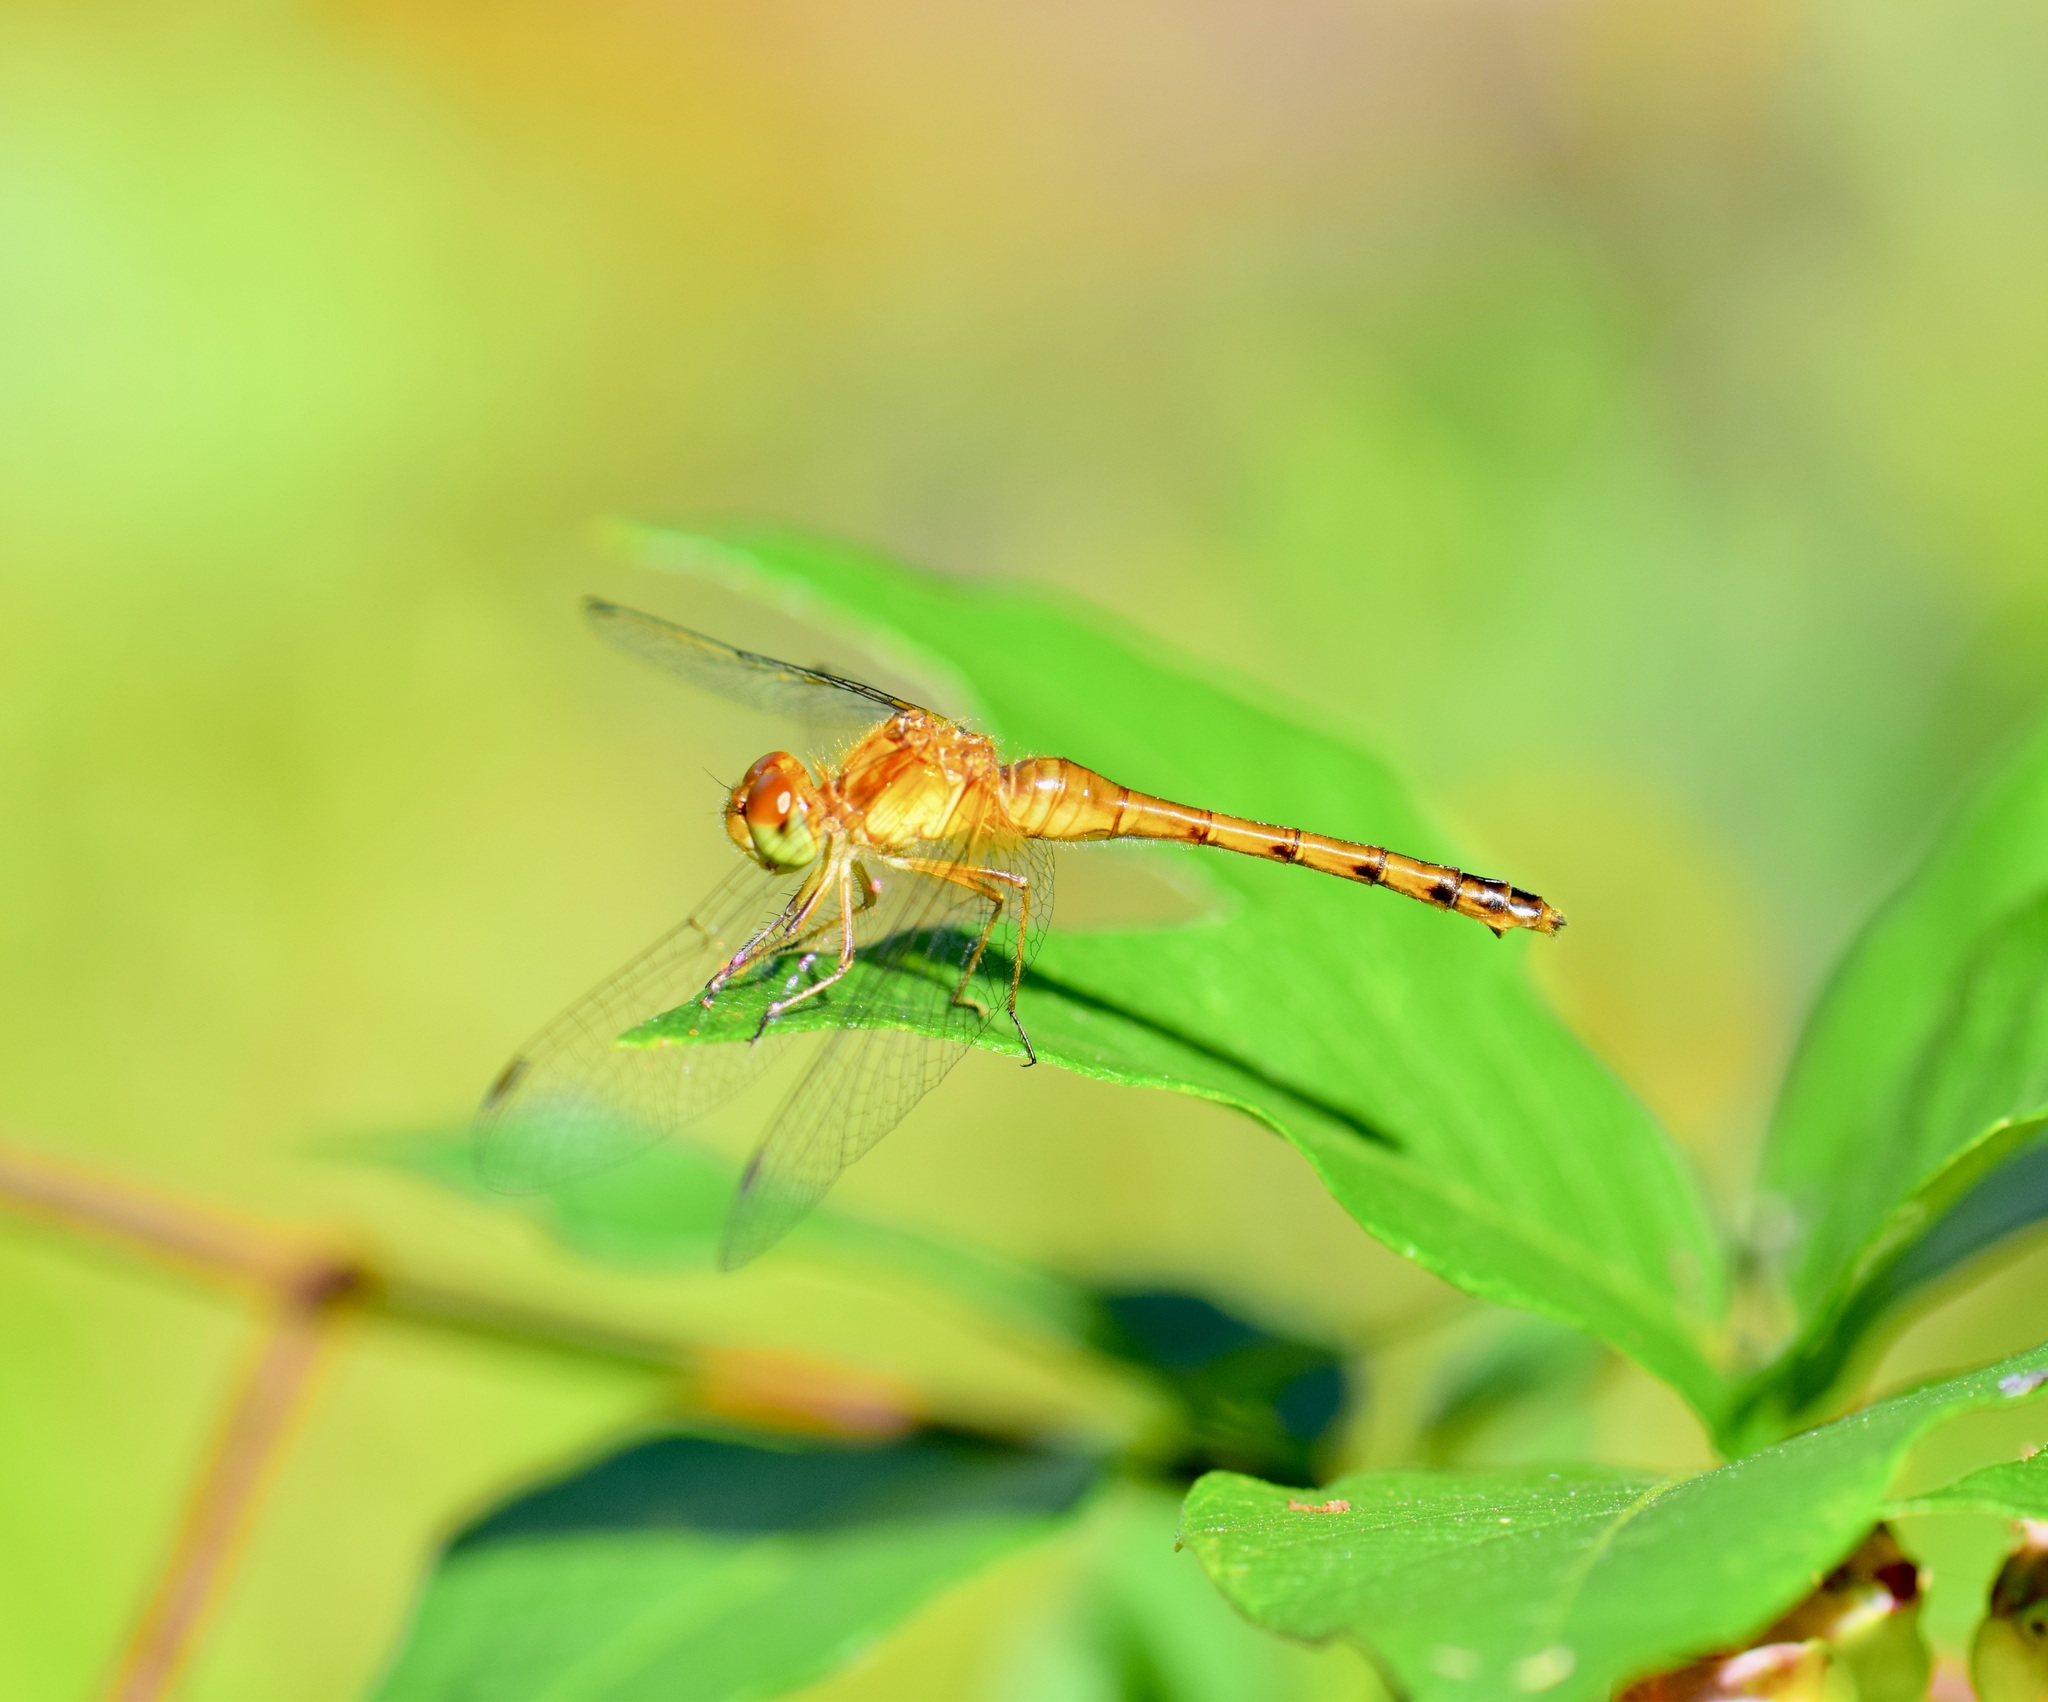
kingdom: Animalia
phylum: Arthropoda
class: Insecta
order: Odonata
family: Libellulidae
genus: Sympetrum
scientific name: Sympetrum vicinum
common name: Autumn meadowhawk
